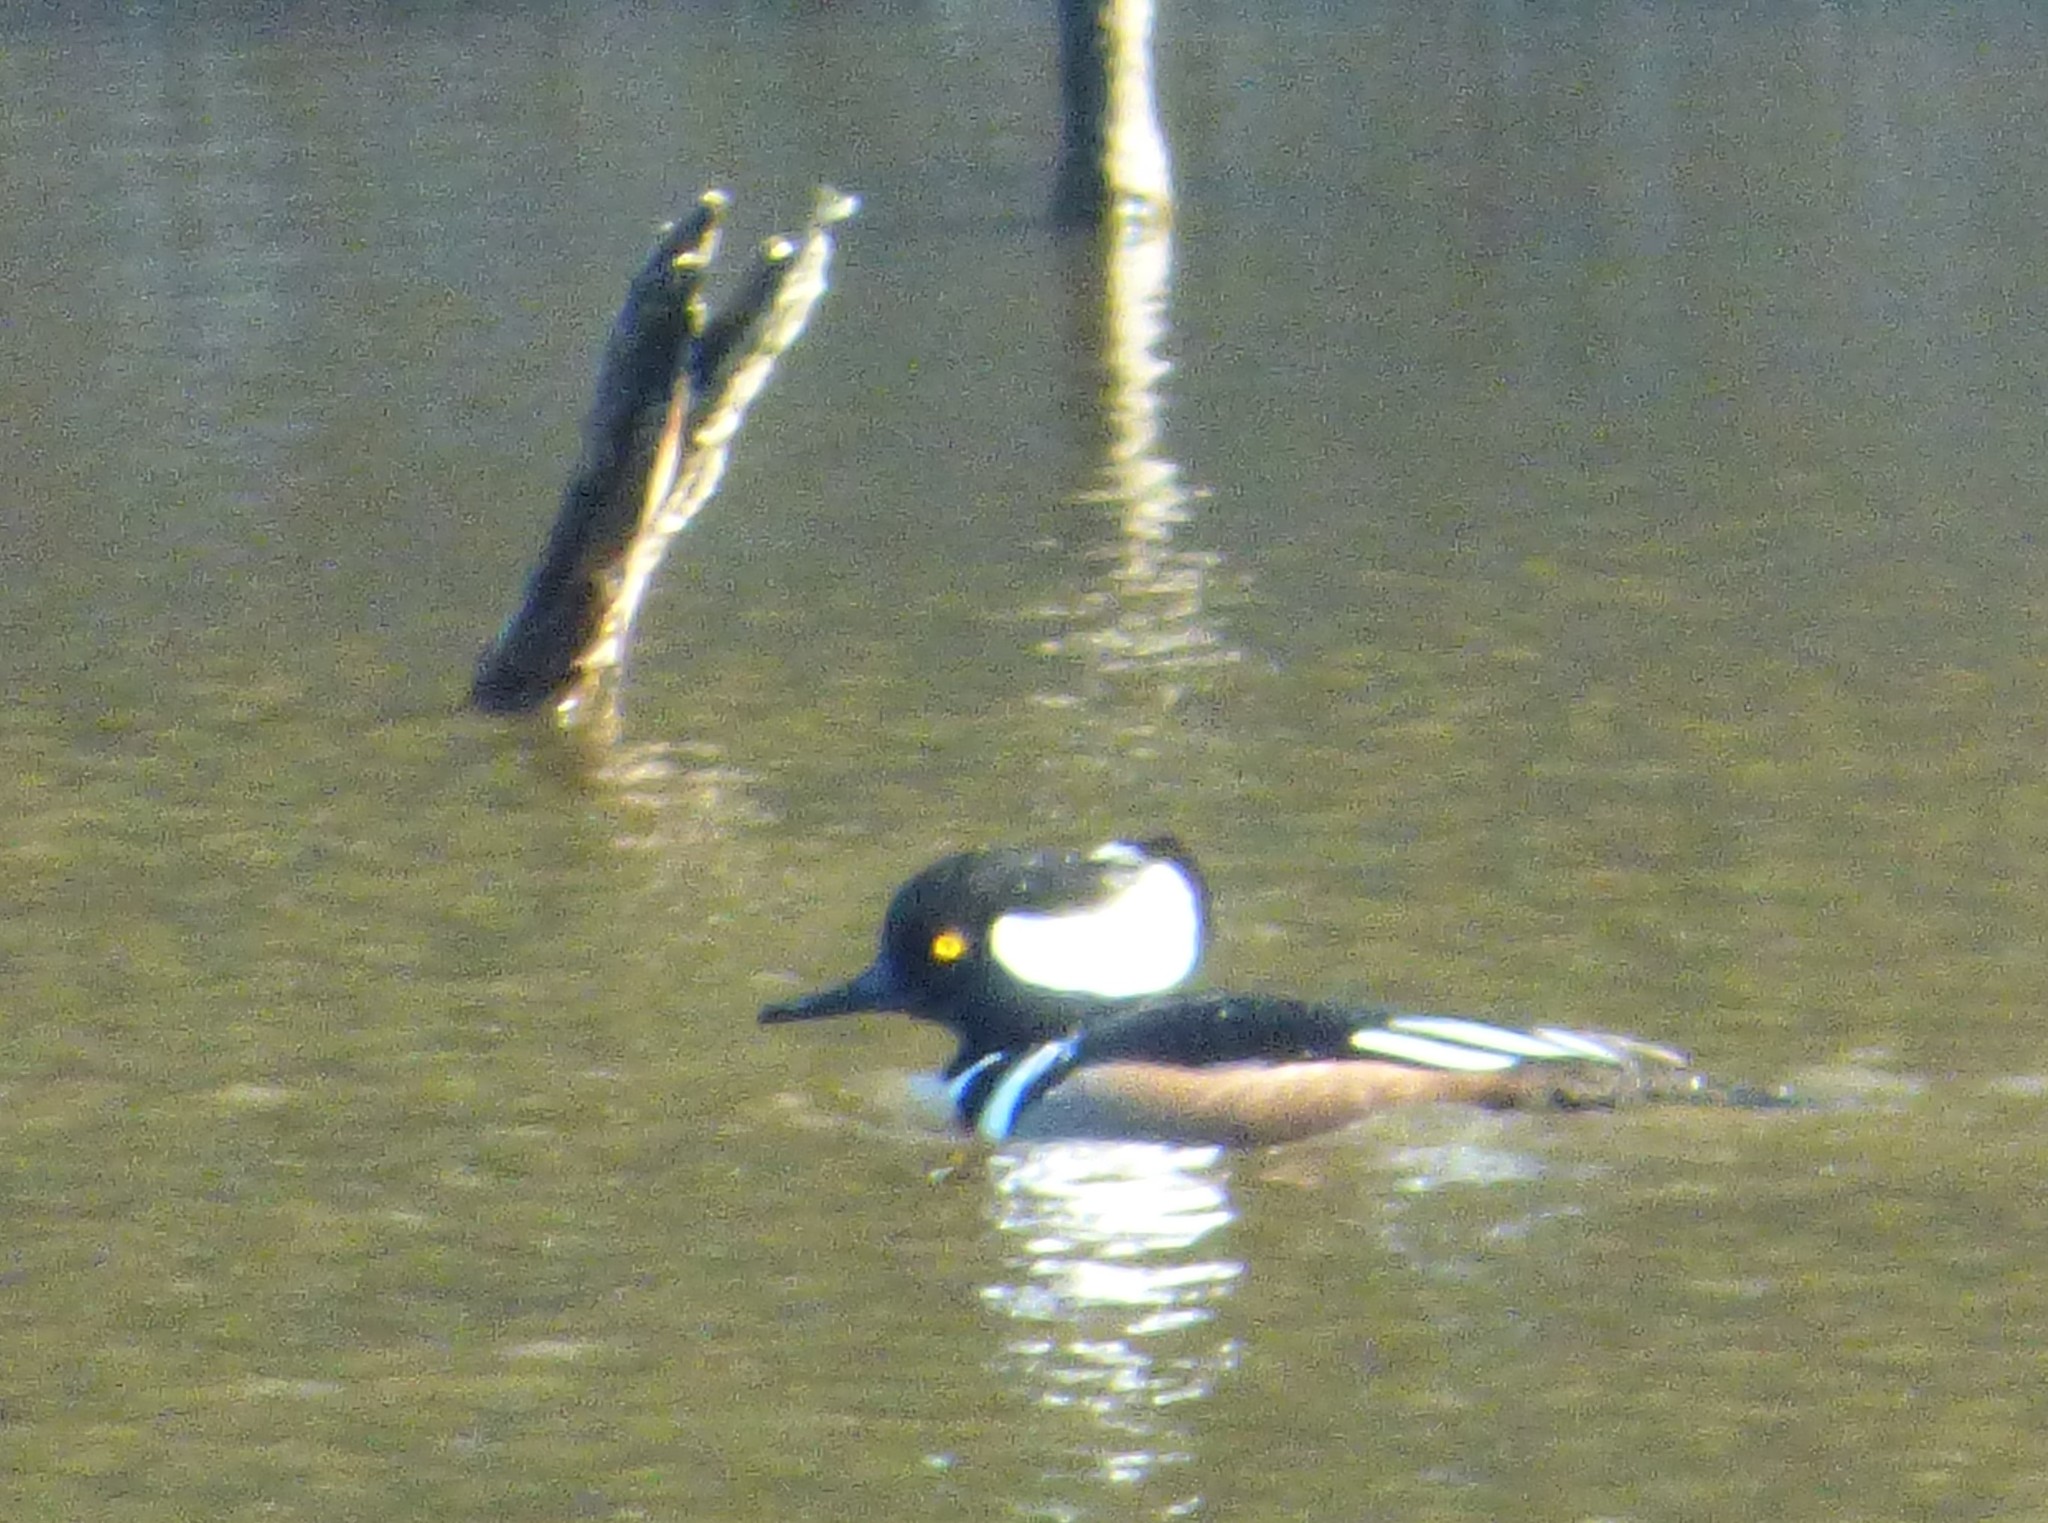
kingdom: Animalia
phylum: Chordata
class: Aves
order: Anseriformes
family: Anatidae
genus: Lophodytes
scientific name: Lophodytes cucullatus
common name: Hooded merganser
